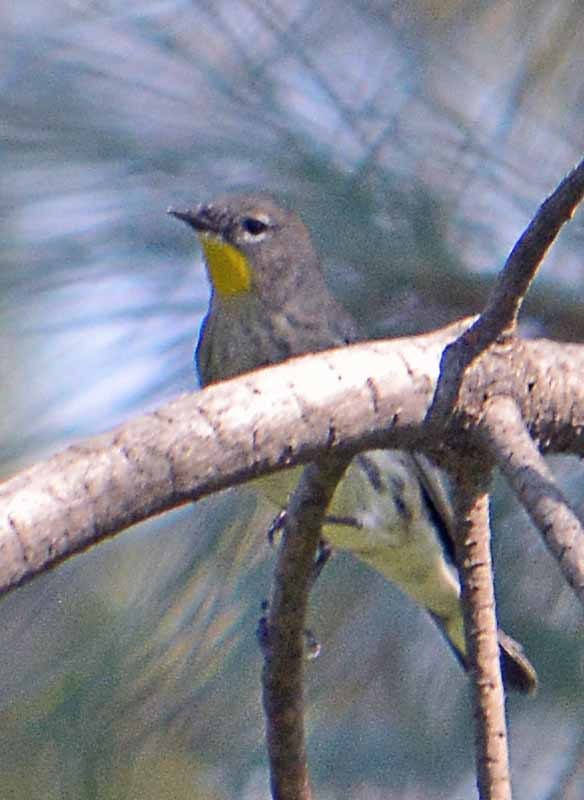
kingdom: Animalia
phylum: Chordata
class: Aves
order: Passeriformes
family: Parulidae
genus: Setophaga
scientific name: Setophaga coronata
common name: Myrtle warbler
